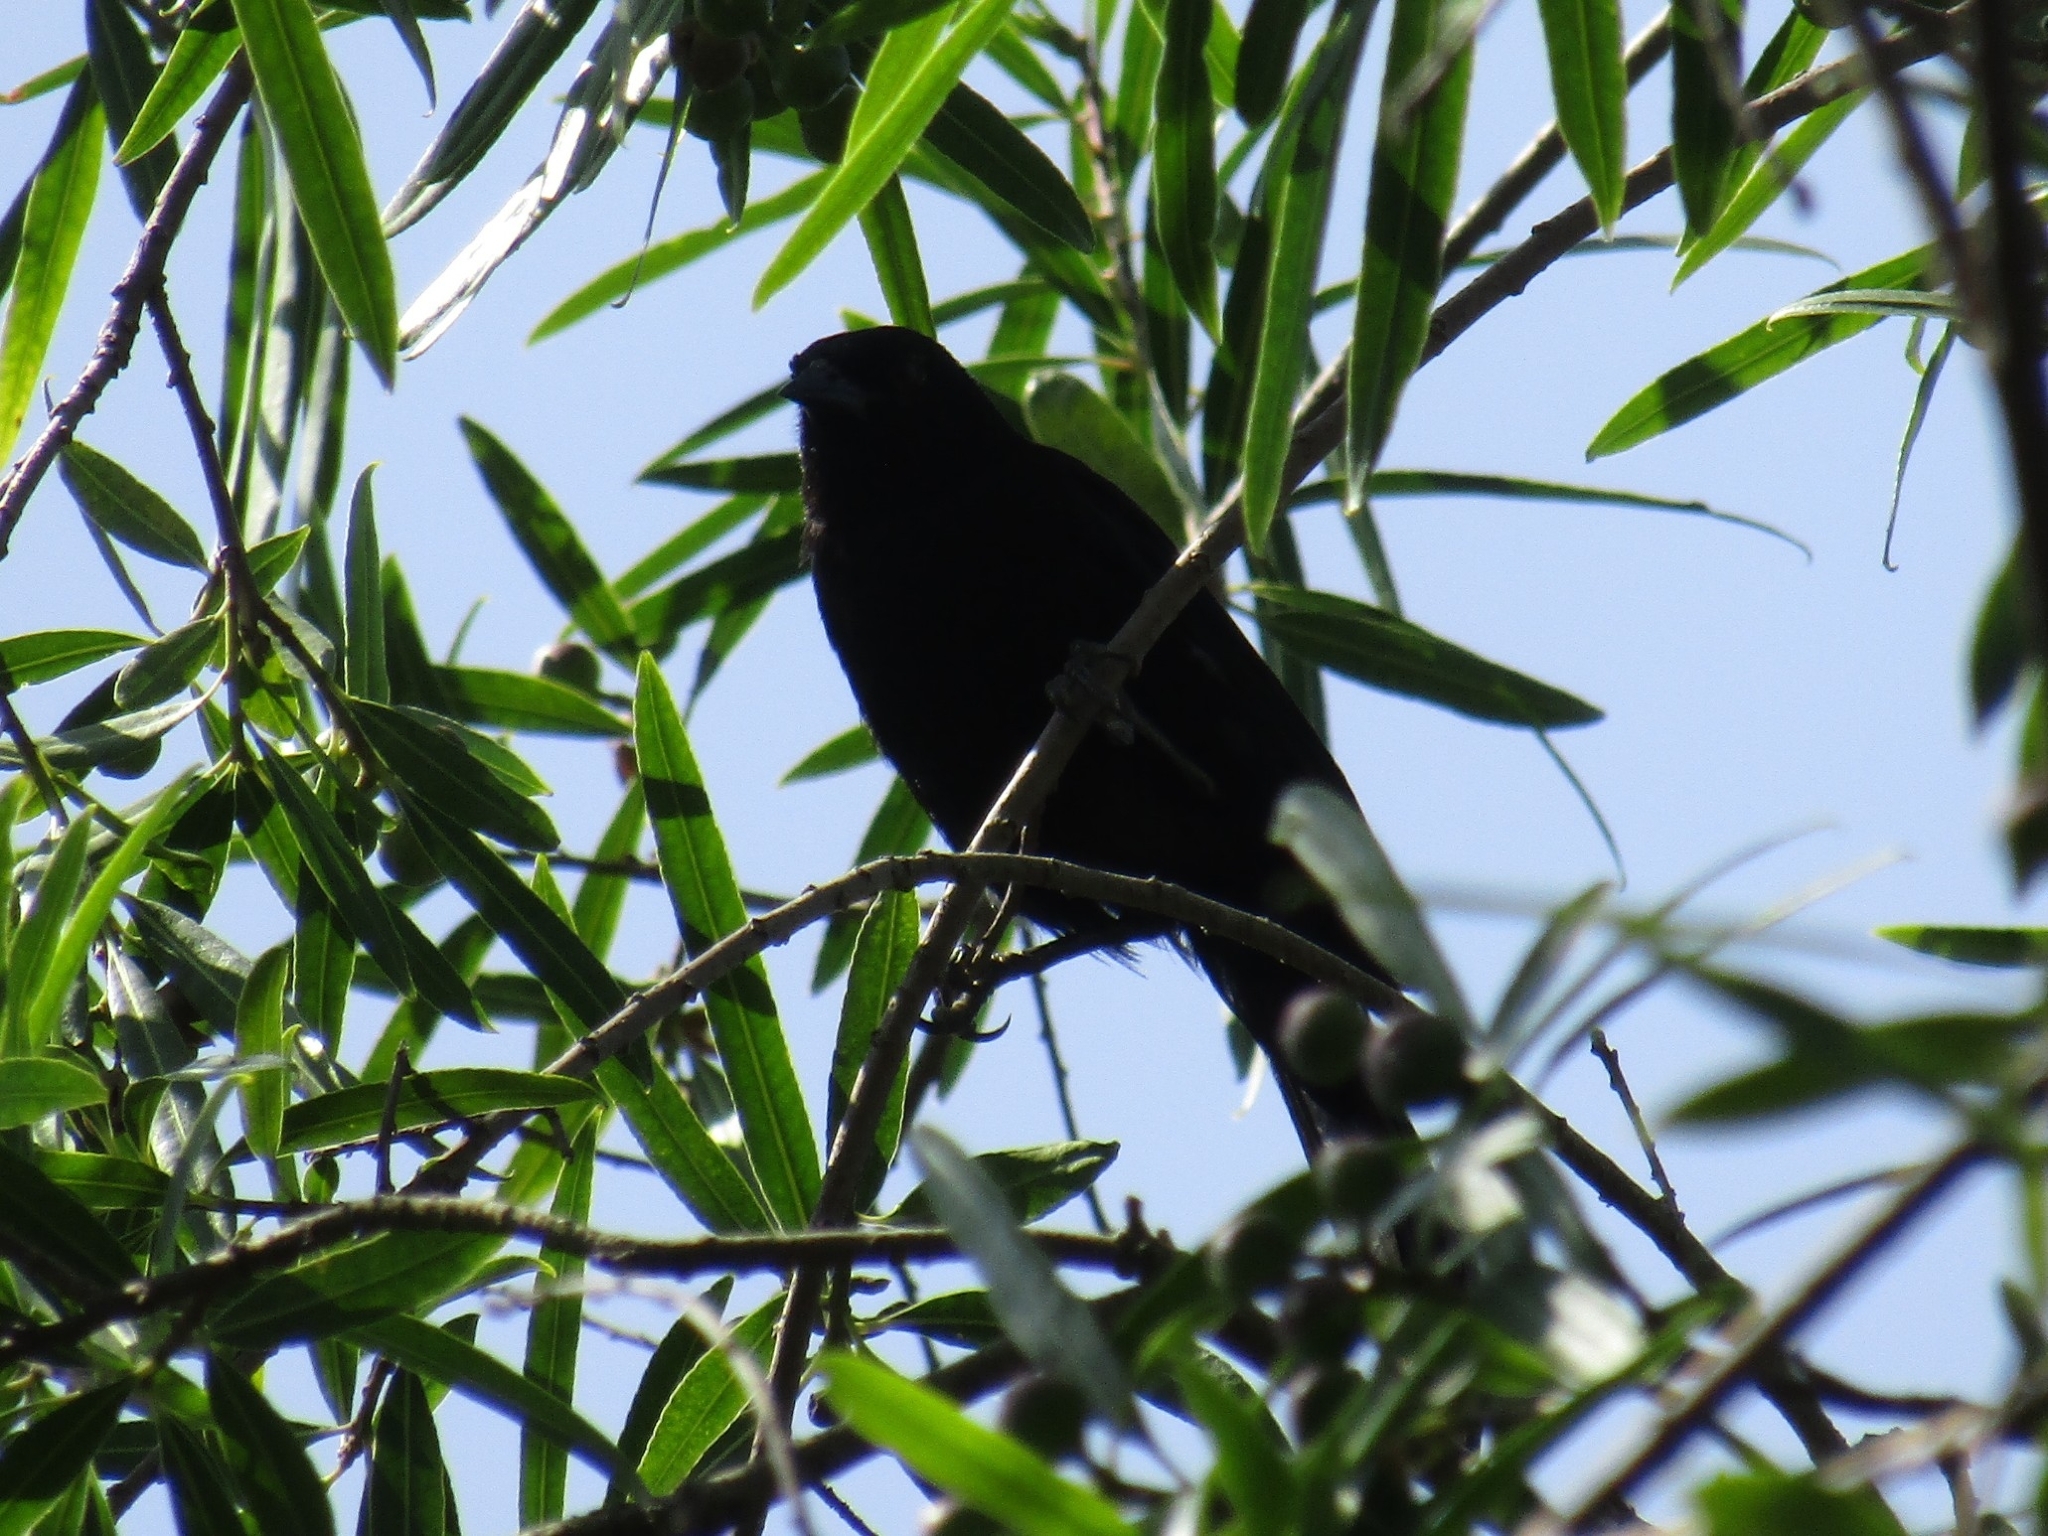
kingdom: Animalia
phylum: Chordata
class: Aves
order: Passeriformes
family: Icteridae
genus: Icterus
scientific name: Icterus cayanensis
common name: Epaulet oriole
